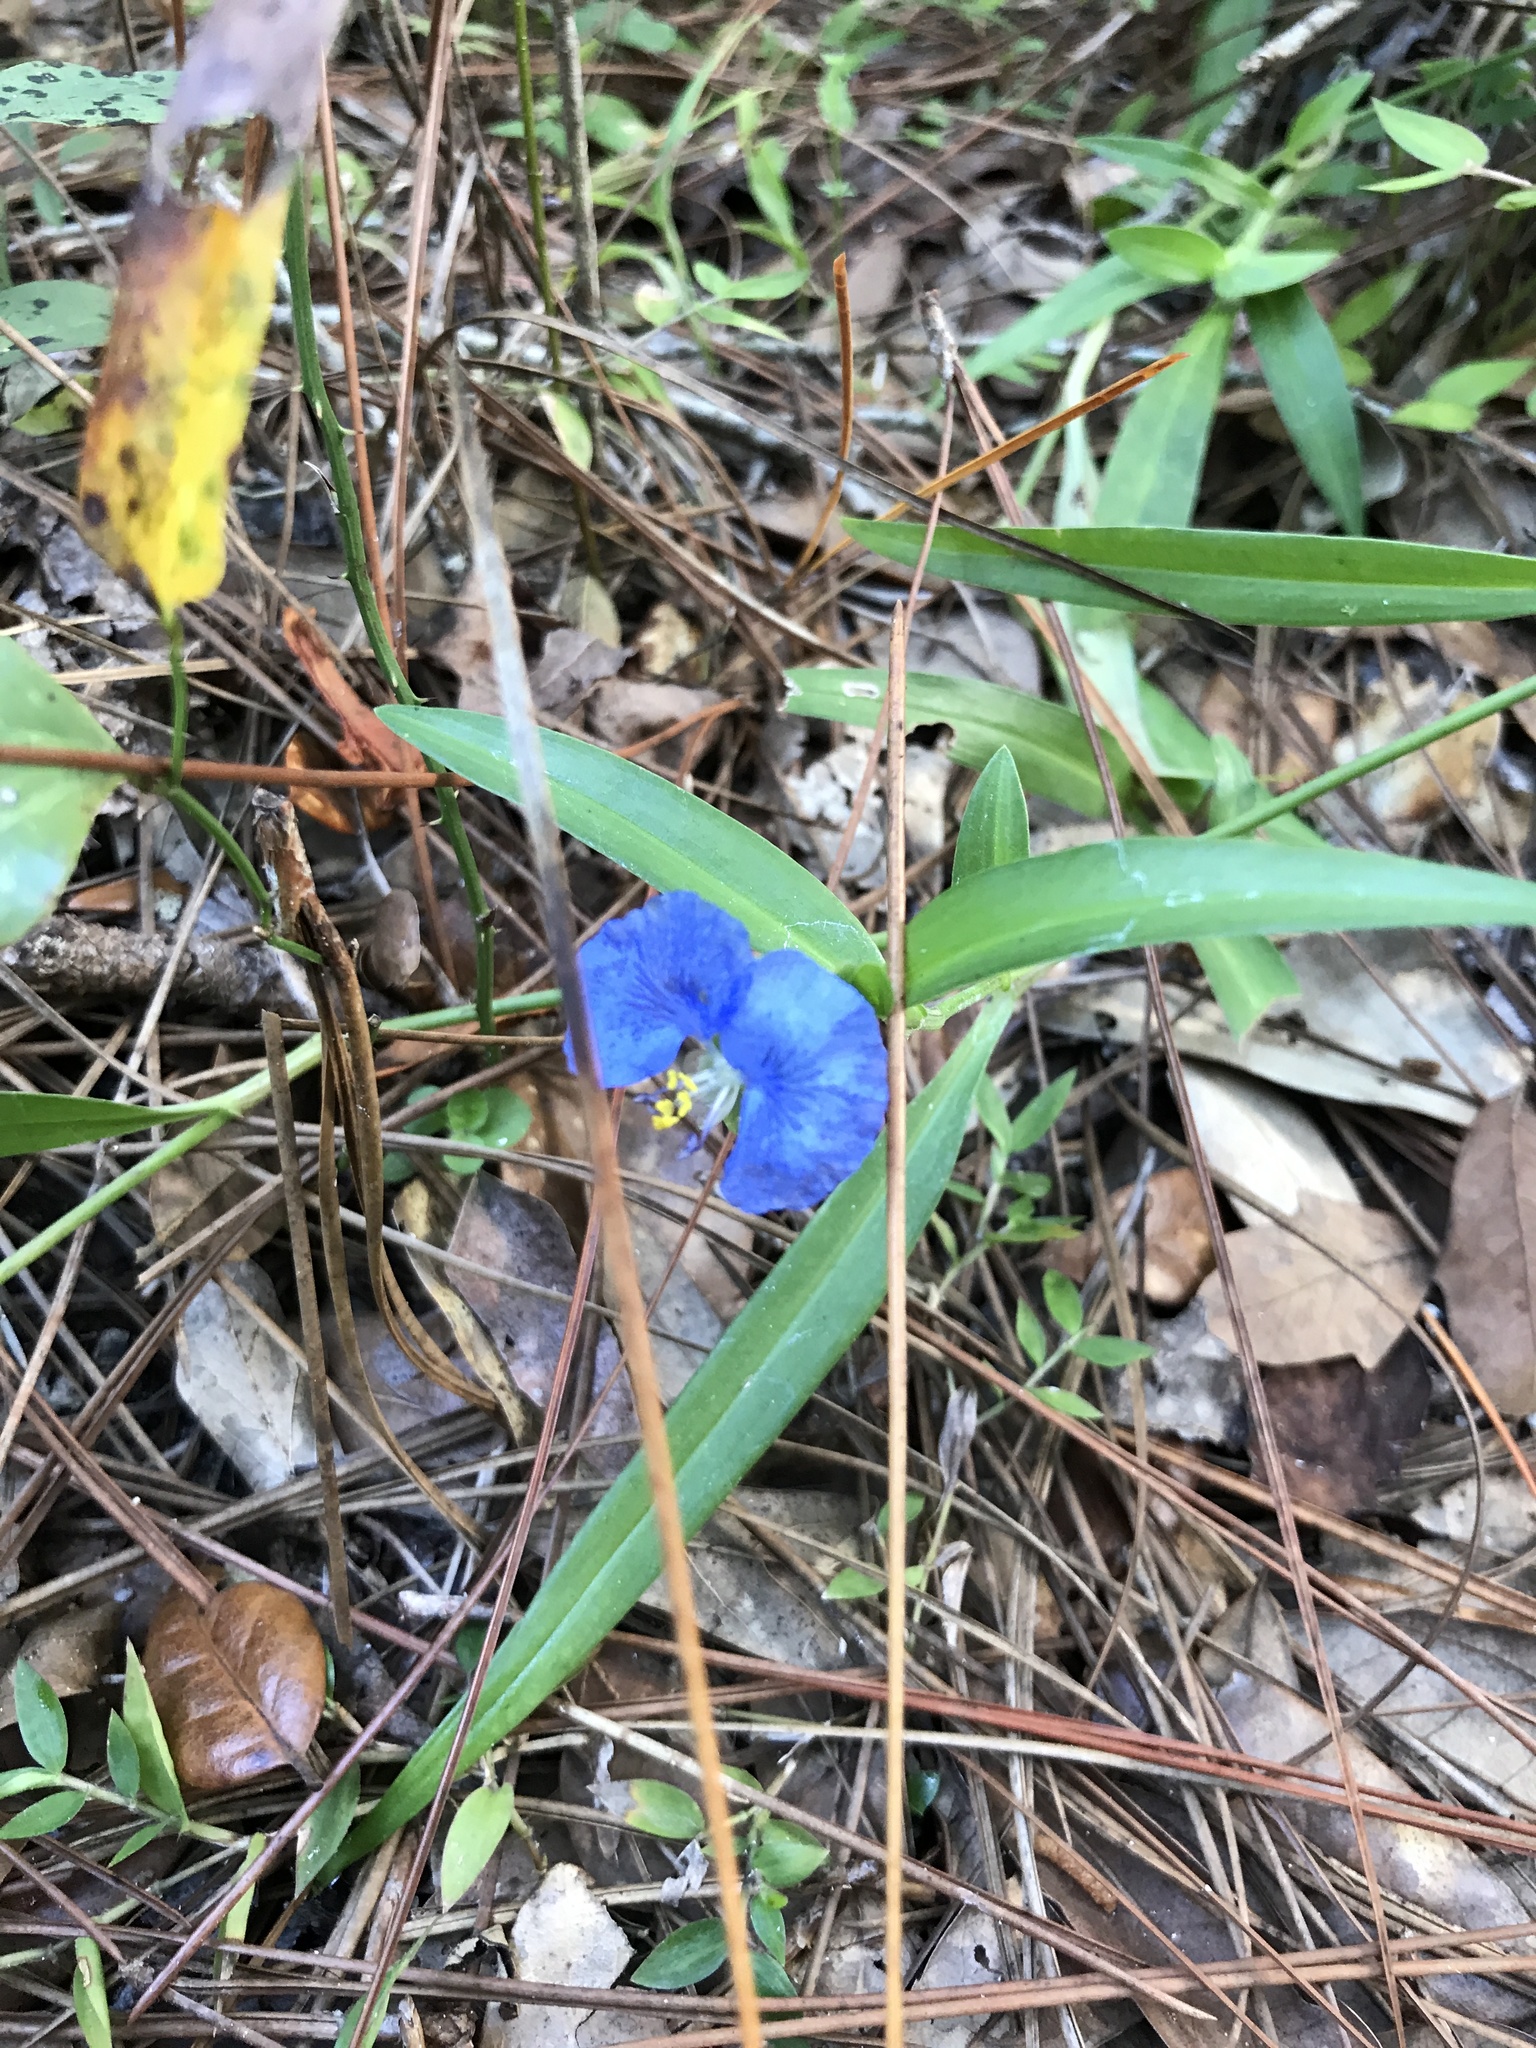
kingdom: Plantae
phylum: Tracheophyta
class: Liliopsida
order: Commelinales
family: Commelinaceae
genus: Commelina
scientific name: Commelina erecta
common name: Blousel blommetjie
